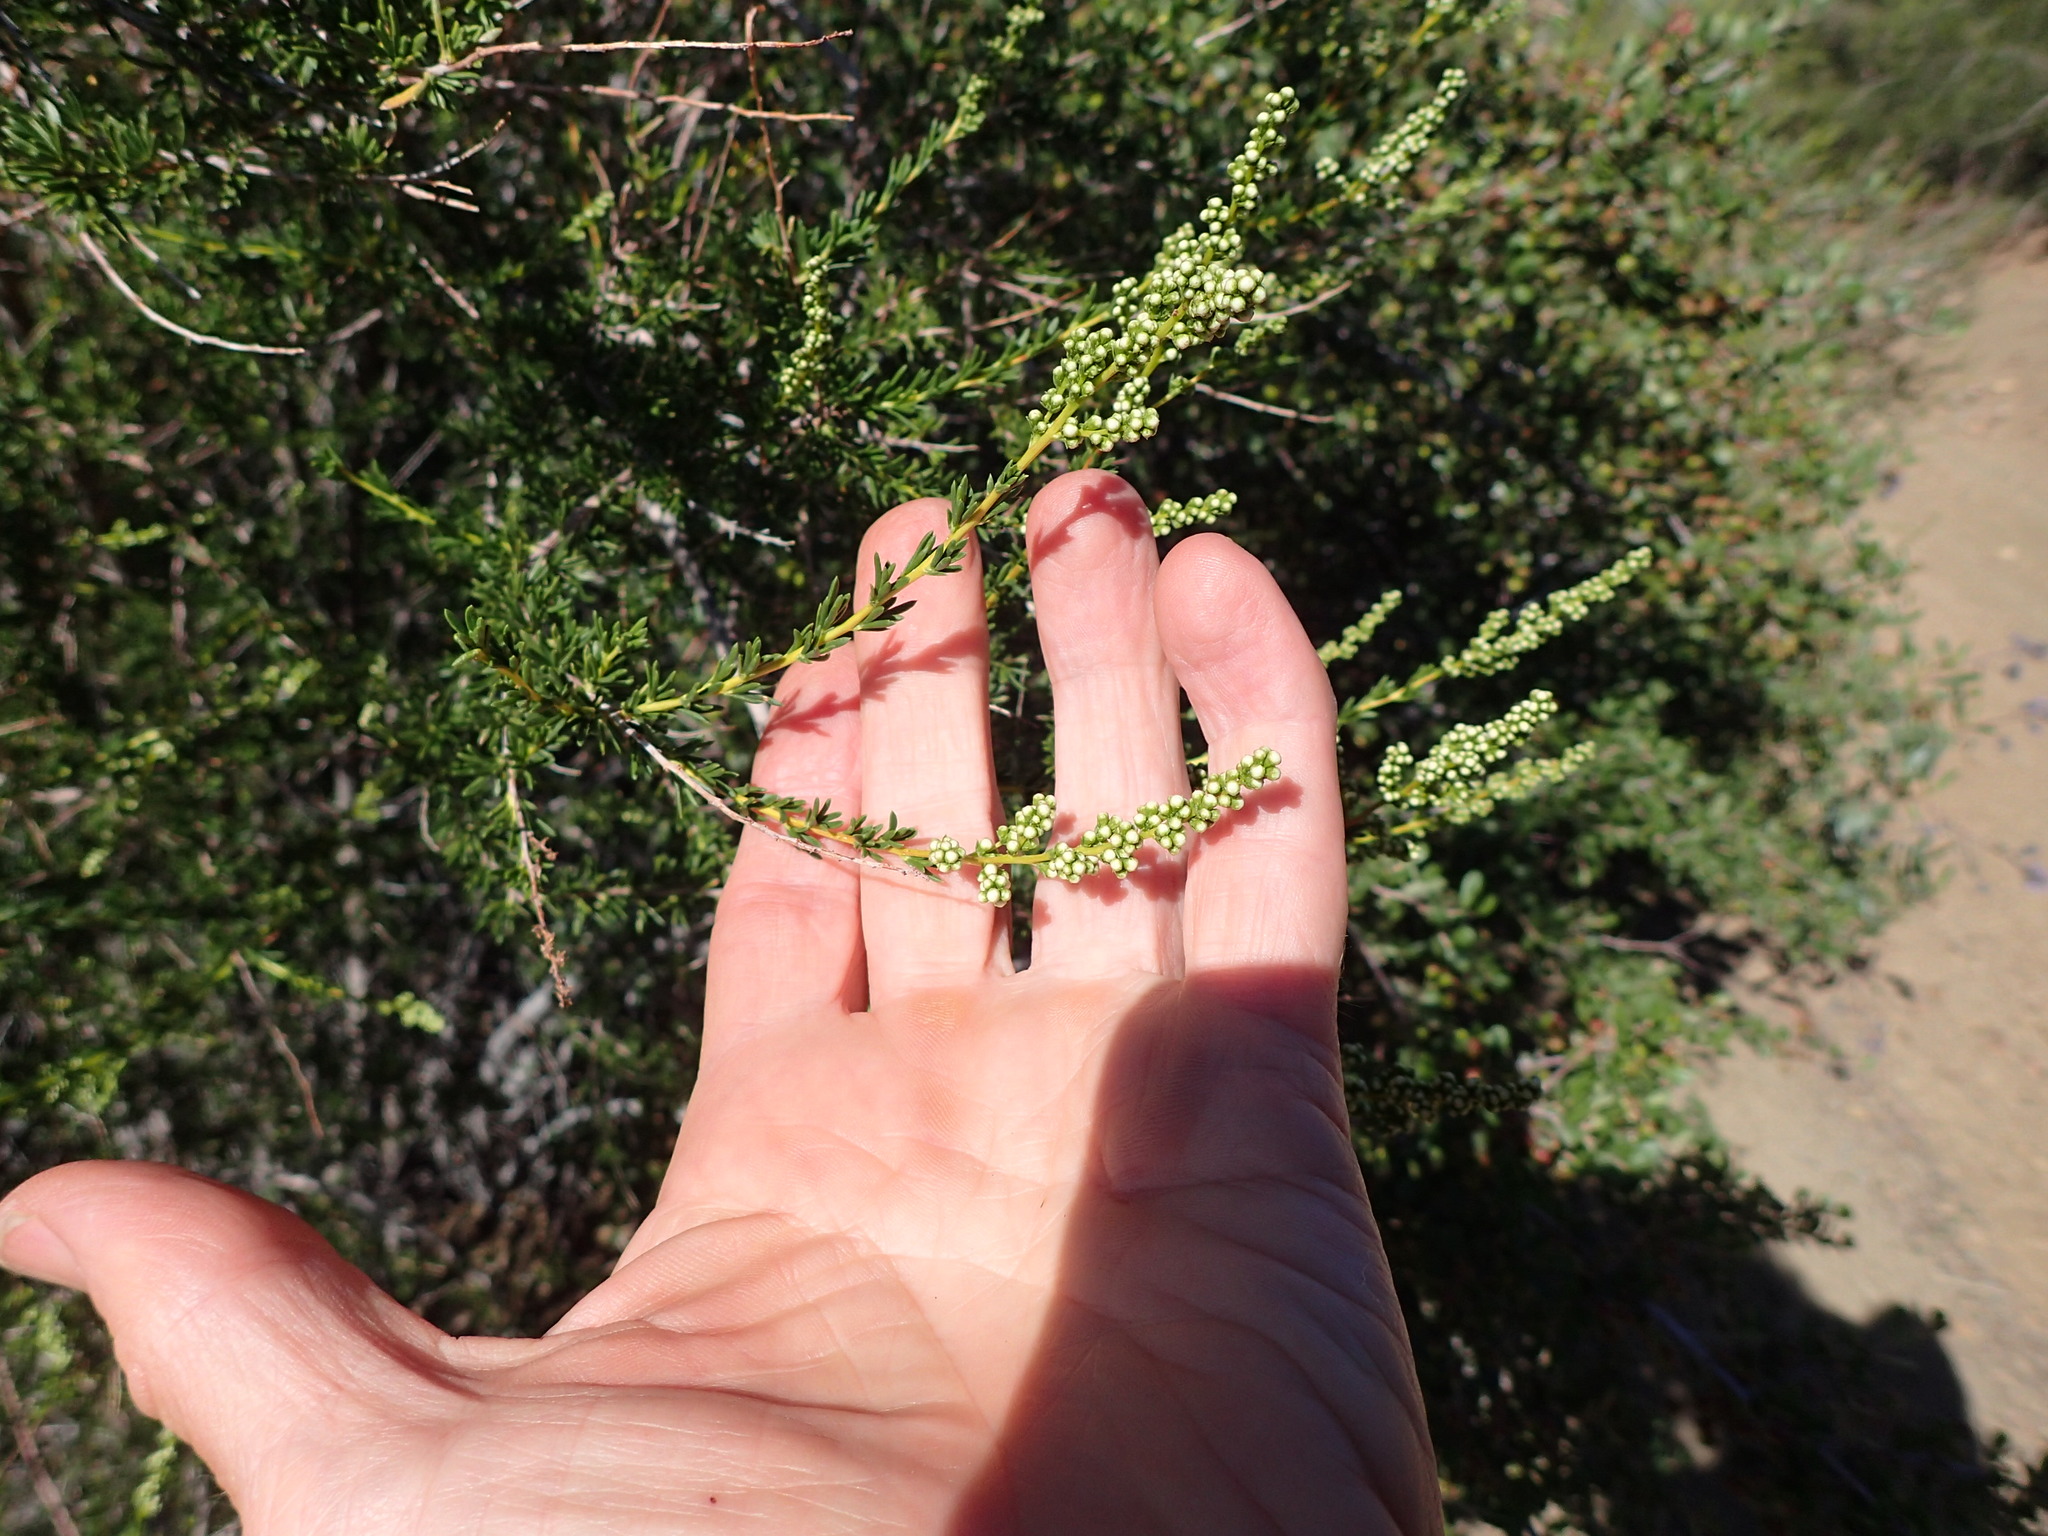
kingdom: Plantae
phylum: Tracheophyta
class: Magnoliopsida
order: Rosales
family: Rosaceae
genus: Adenostoma
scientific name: Adenostoma fasciculatum
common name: Chamise
